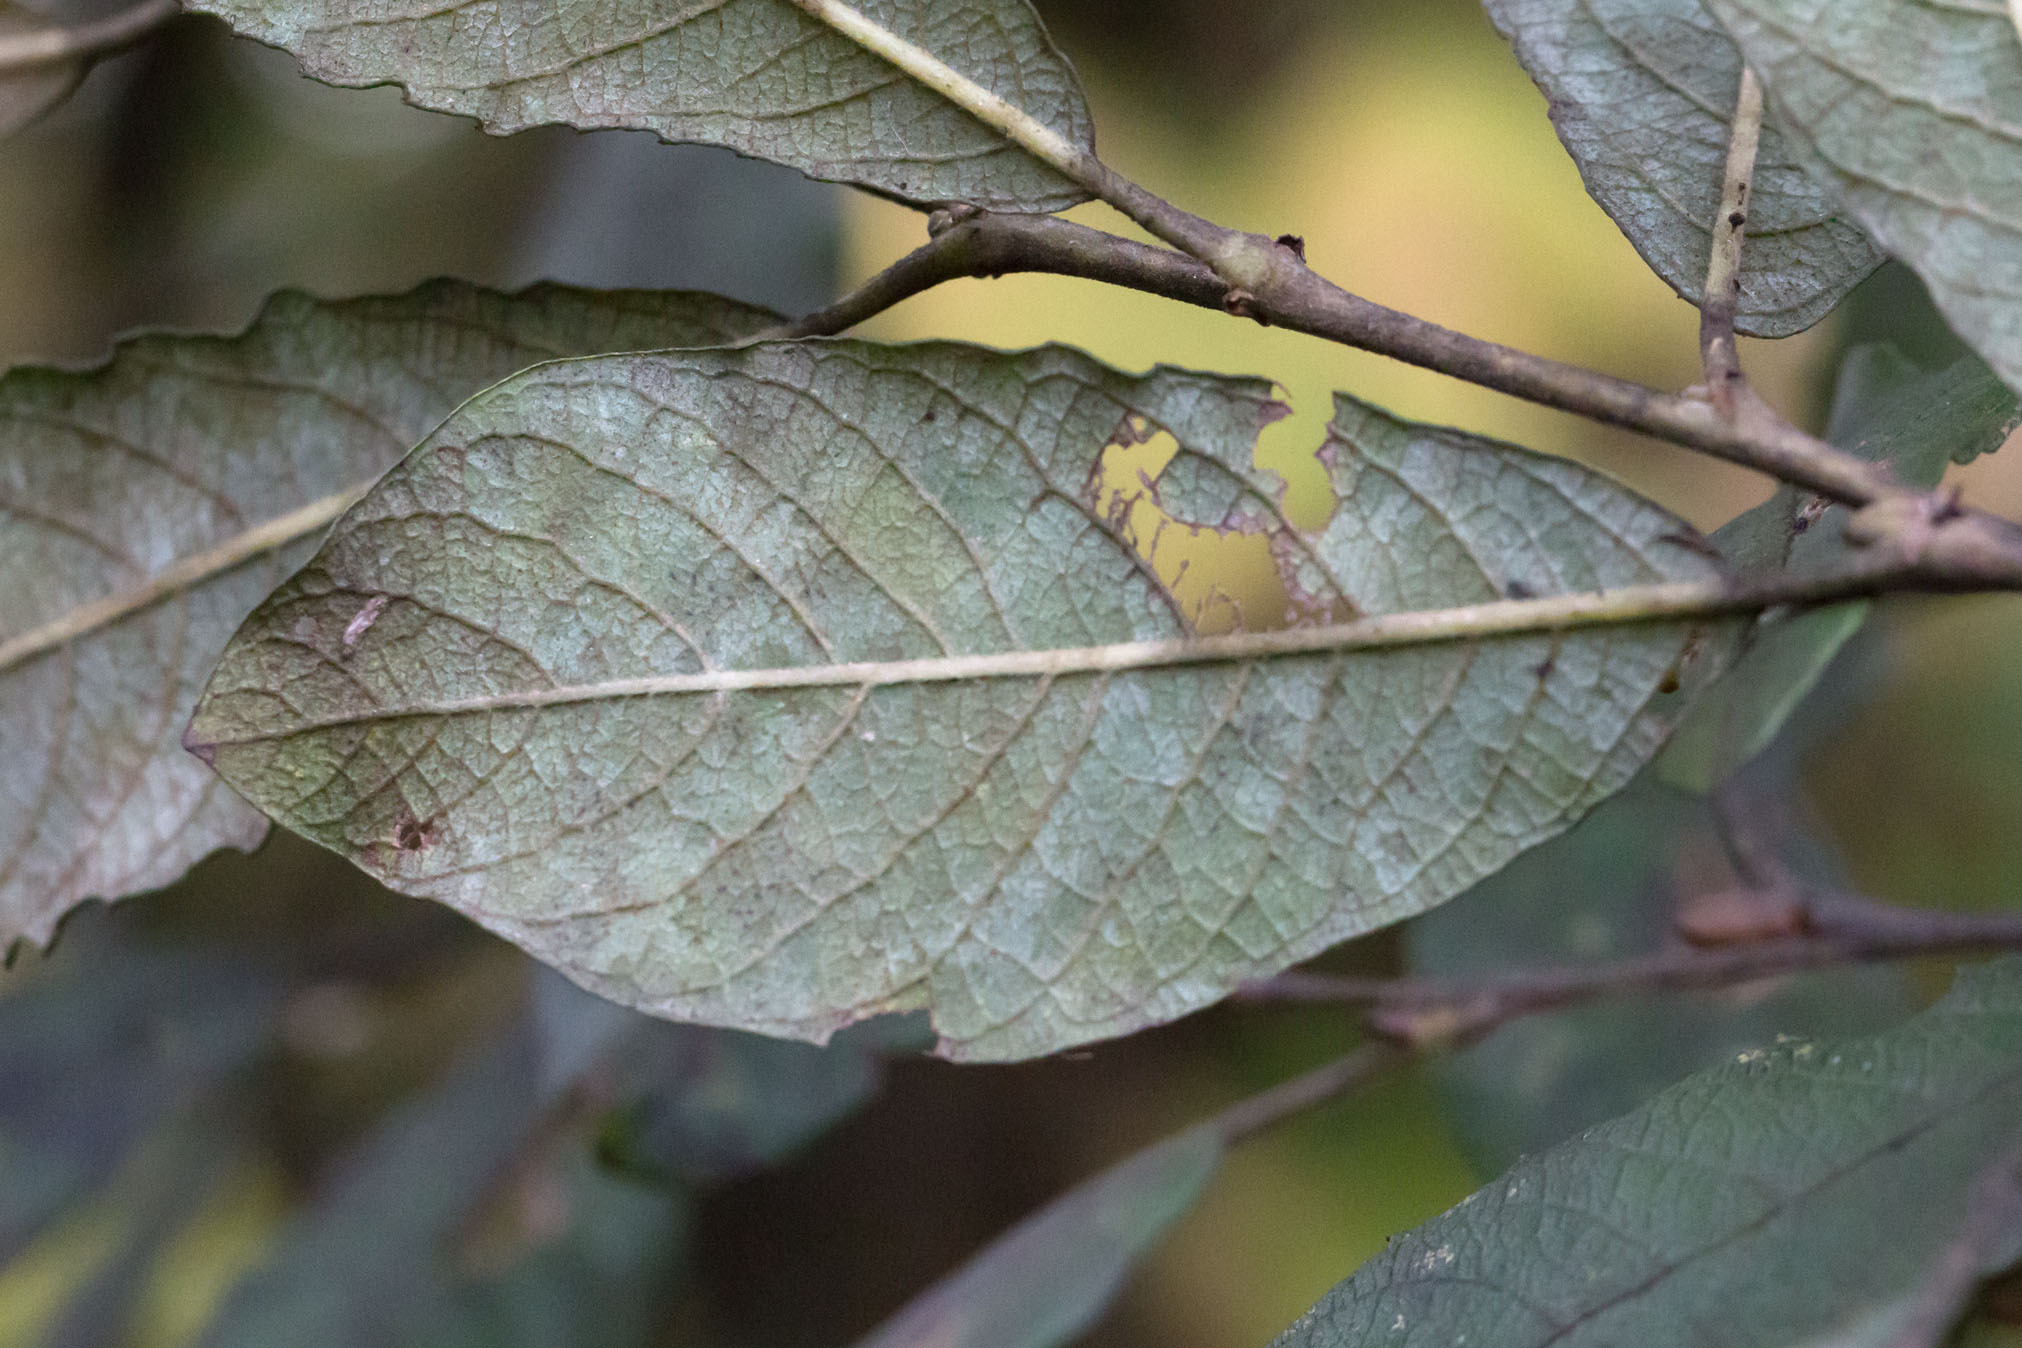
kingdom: Plantae
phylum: Tracheophyta
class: Magnoliopsida
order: Malpighiales
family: Salicaceae
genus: Salix
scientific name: Salix atrocinerea
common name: Rusty willow
